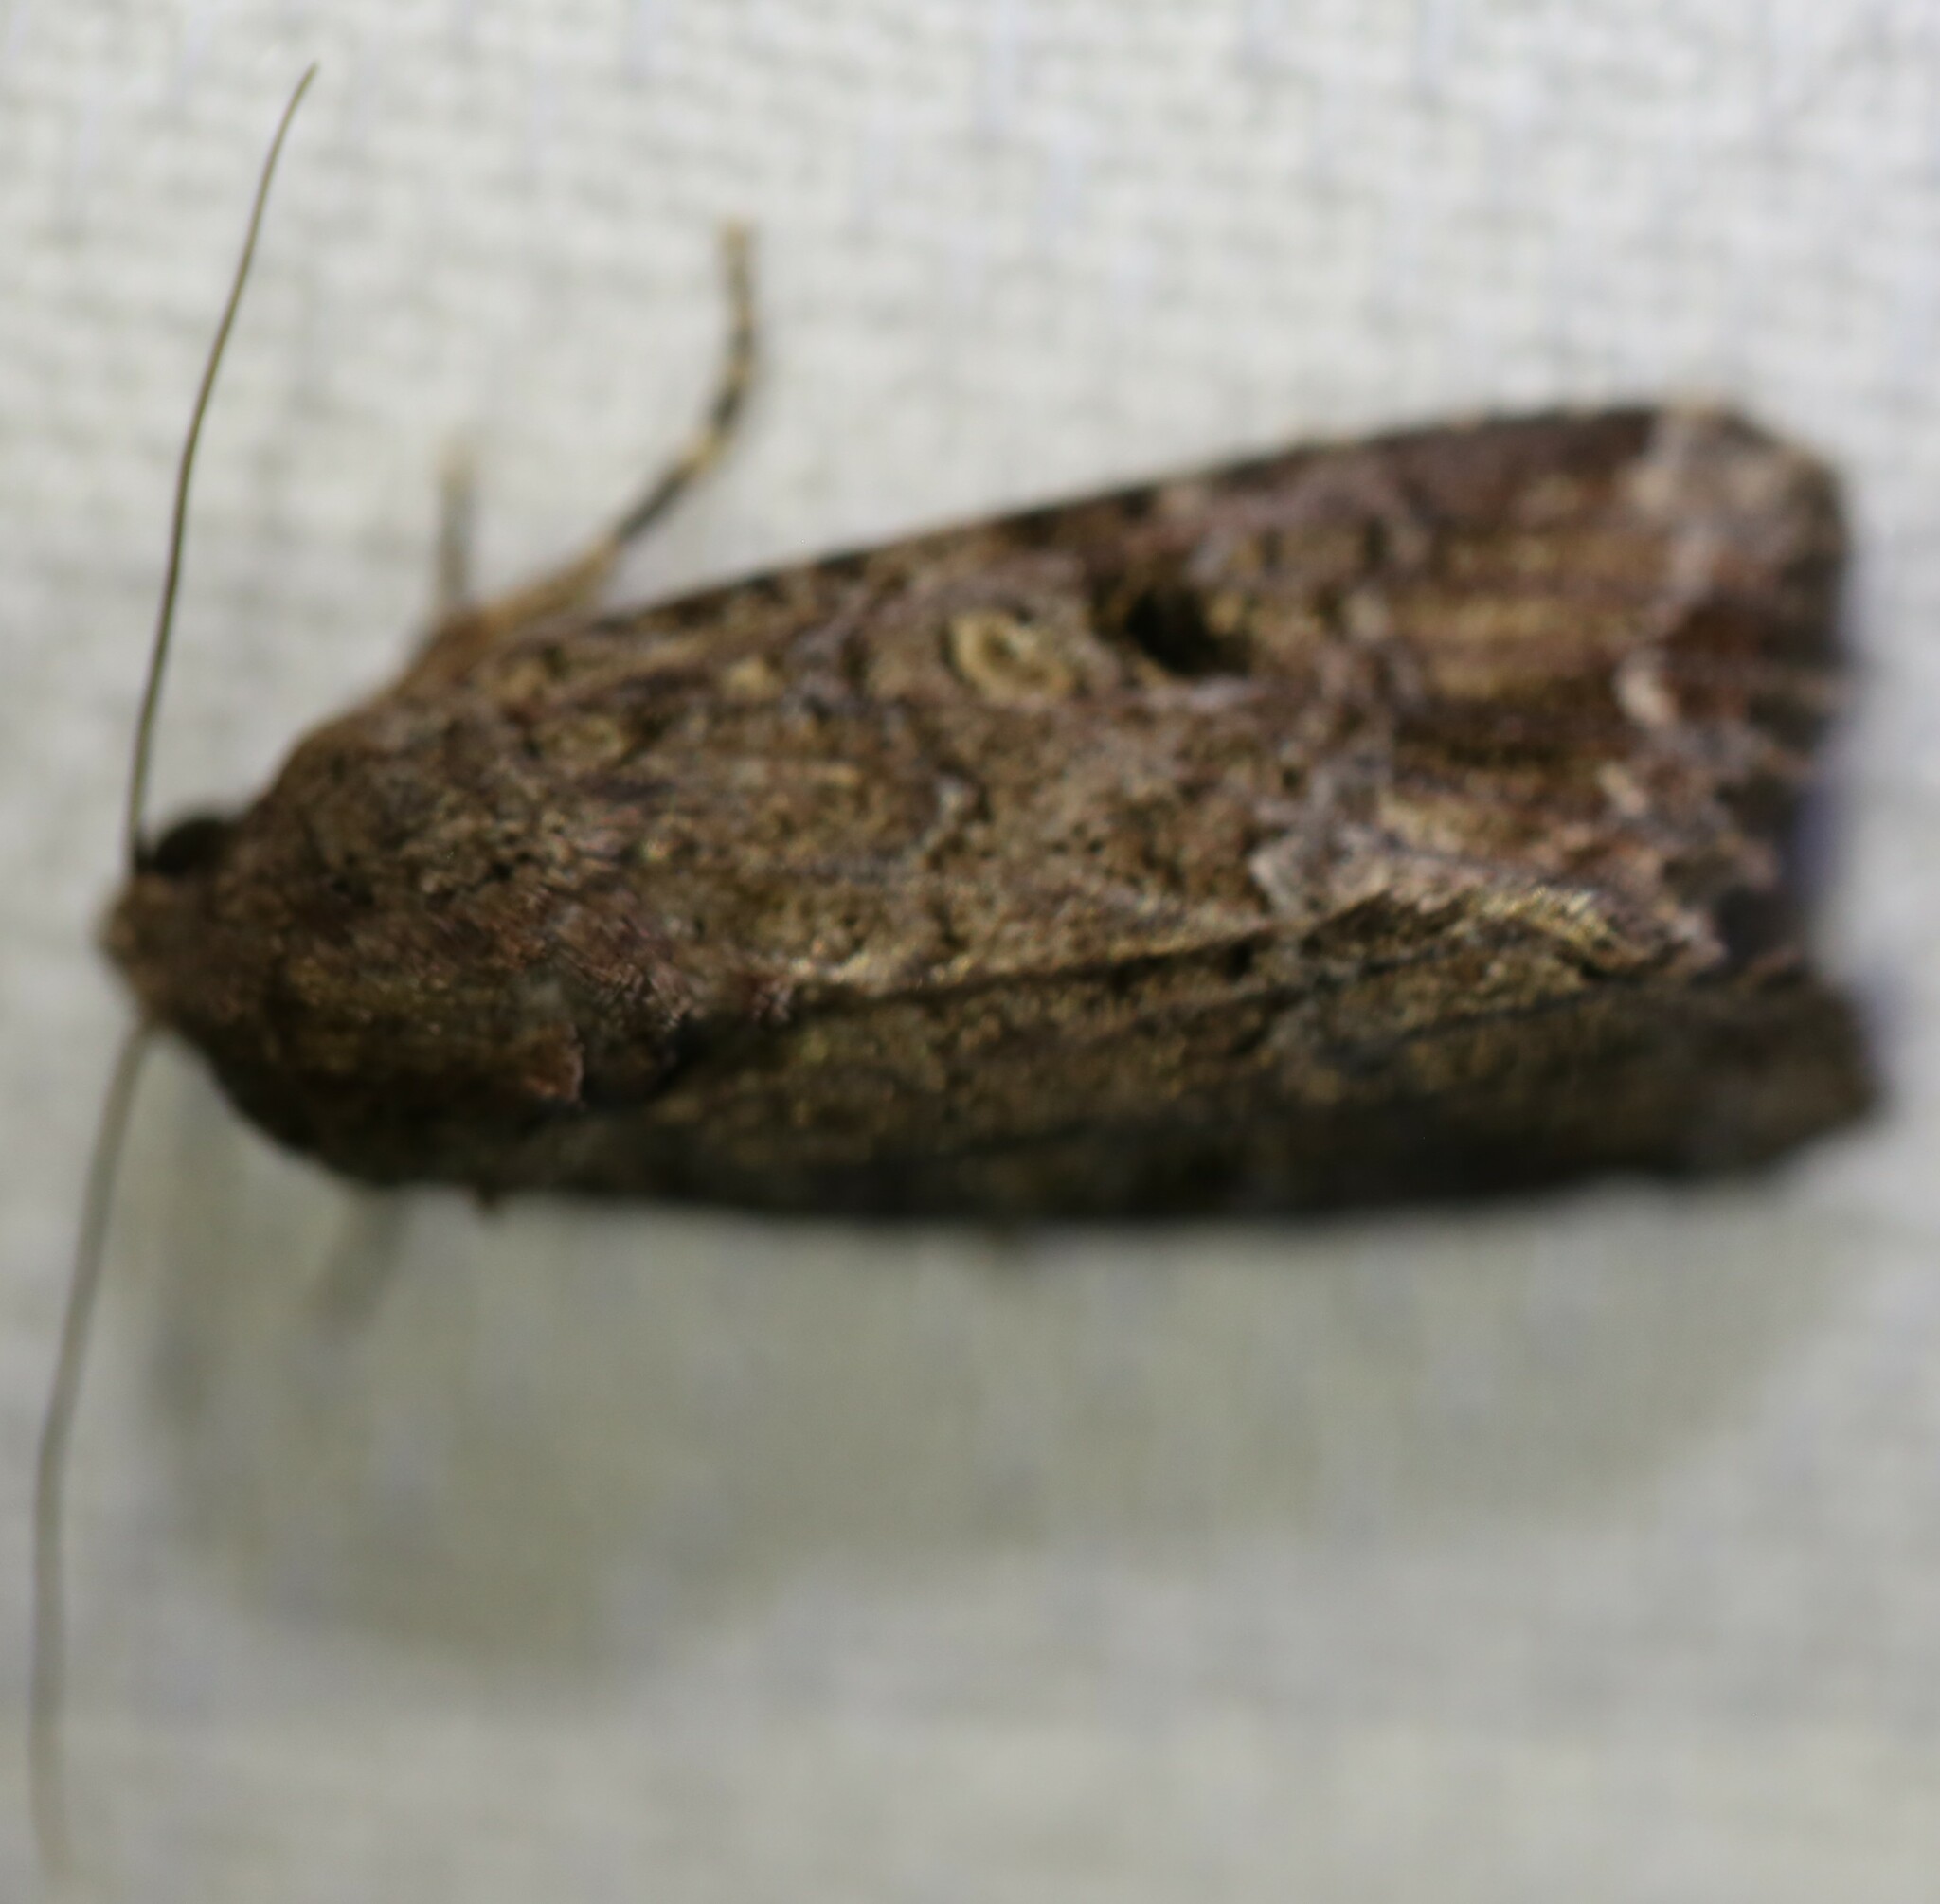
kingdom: Animalia
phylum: Arthropoda
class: Insecta
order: Lepidoptera
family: Noctuidae
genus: Spodoptera
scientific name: Spodoptera mauritia
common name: Lawn armyworm
